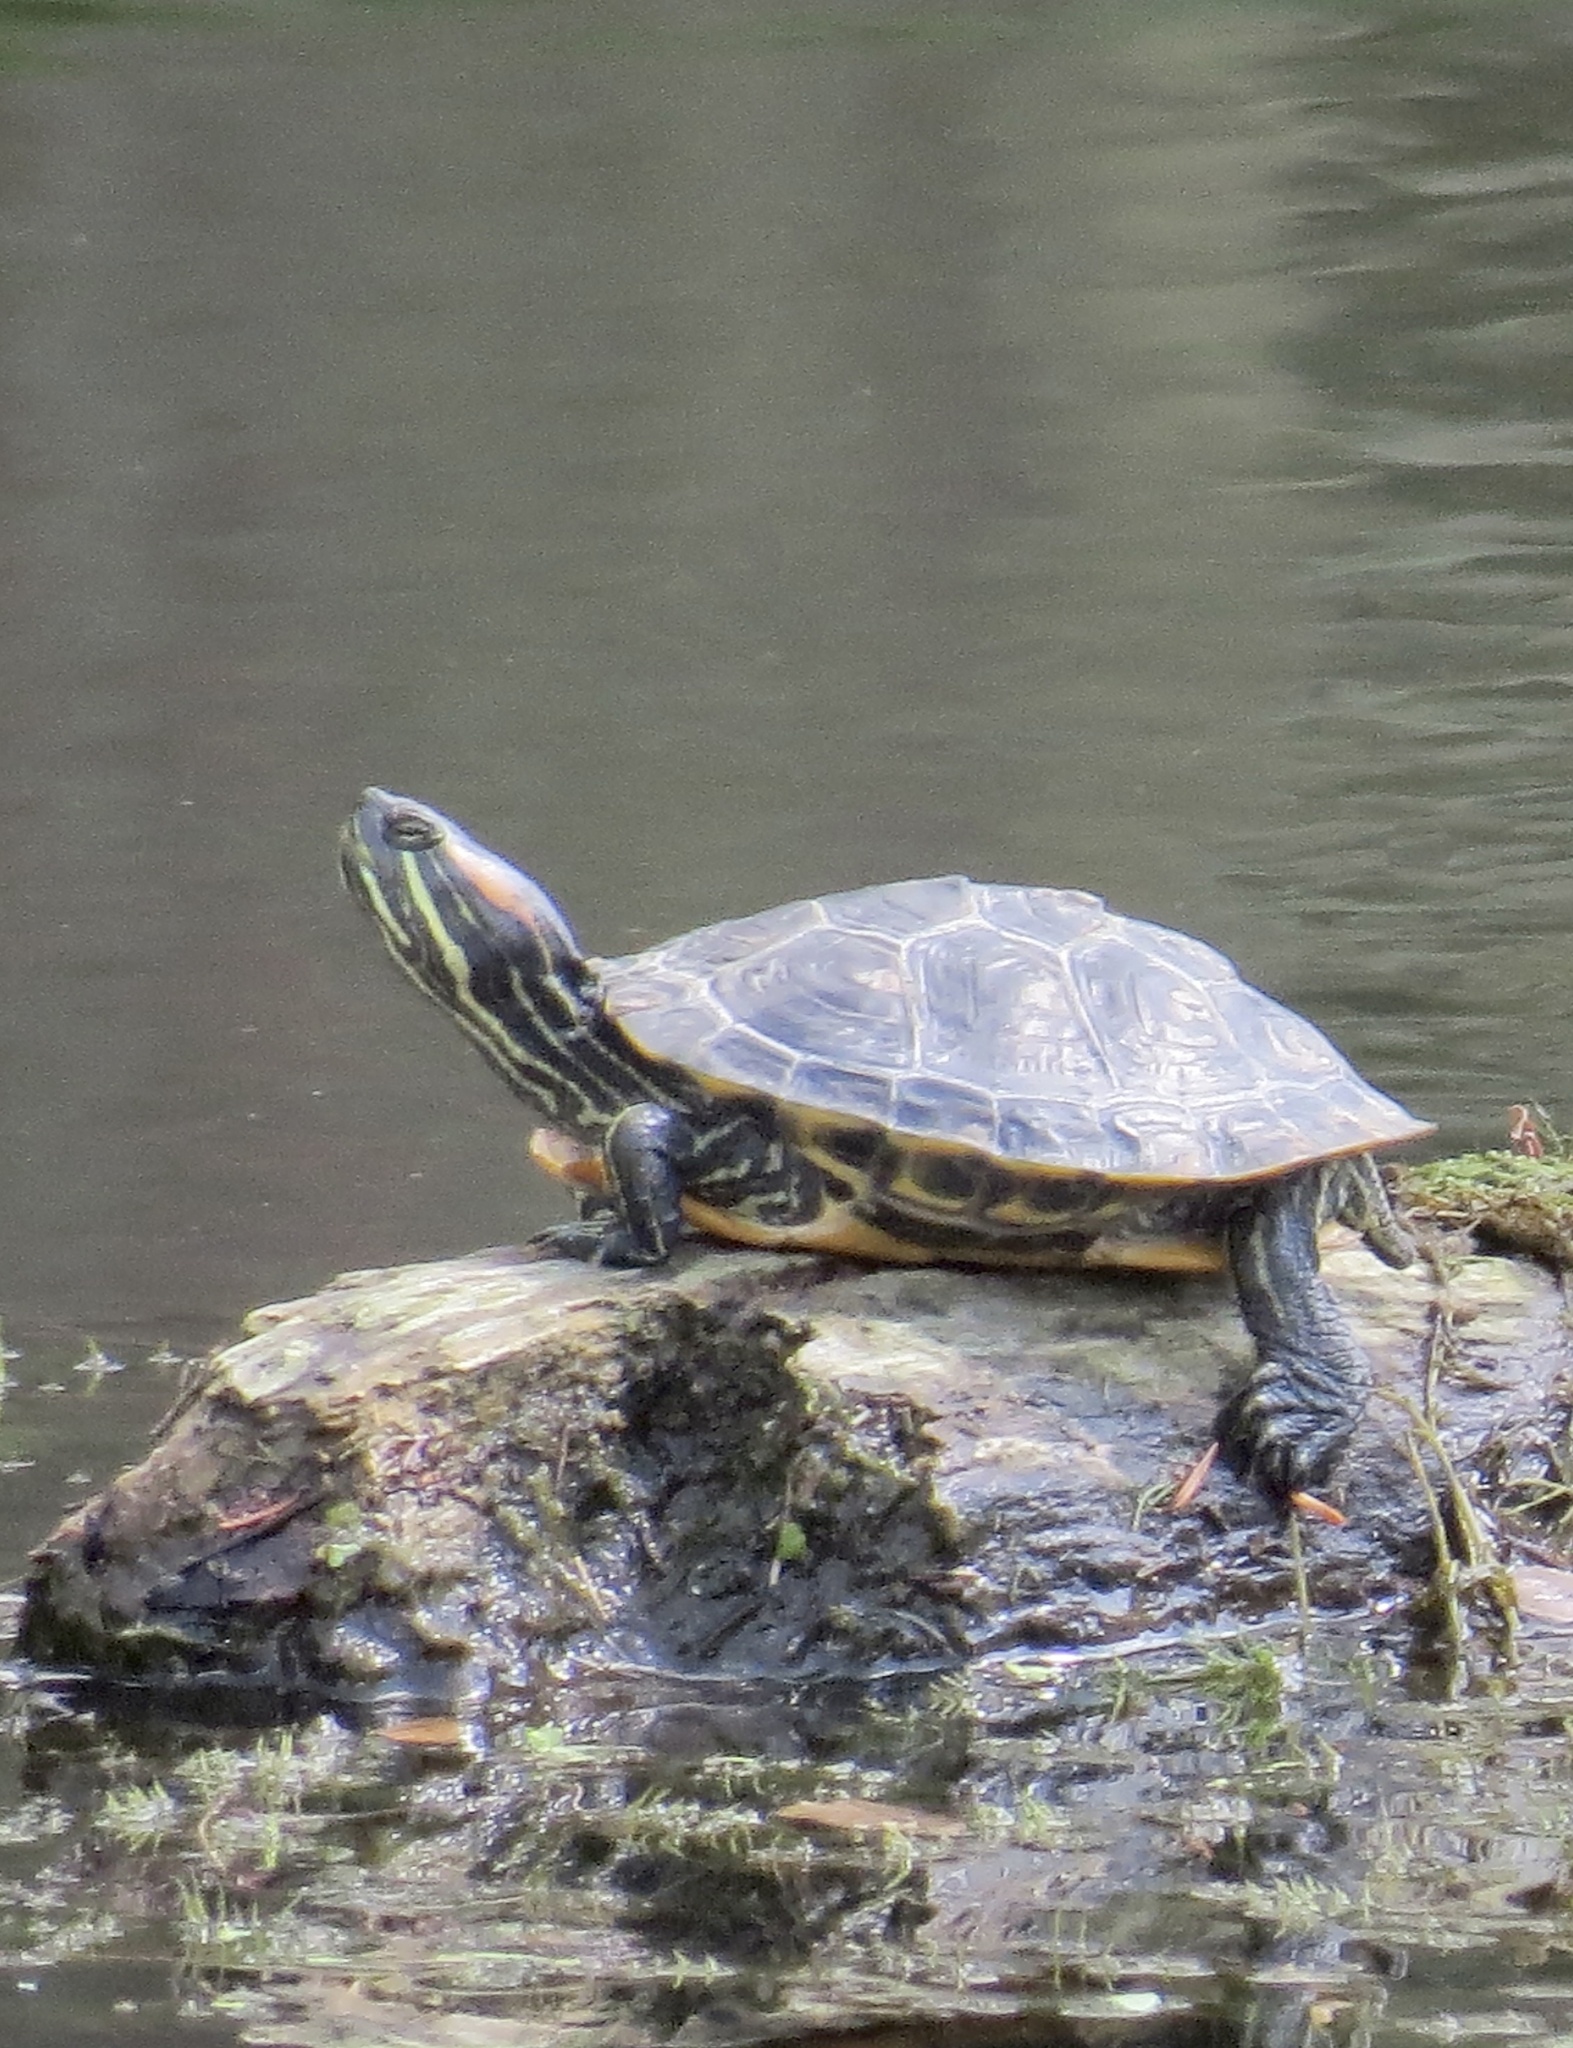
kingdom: Animalia
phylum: Chordata
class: Testudines
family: Emydidae
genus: Trachemys
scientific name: Trachemys scripta
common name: Slider
